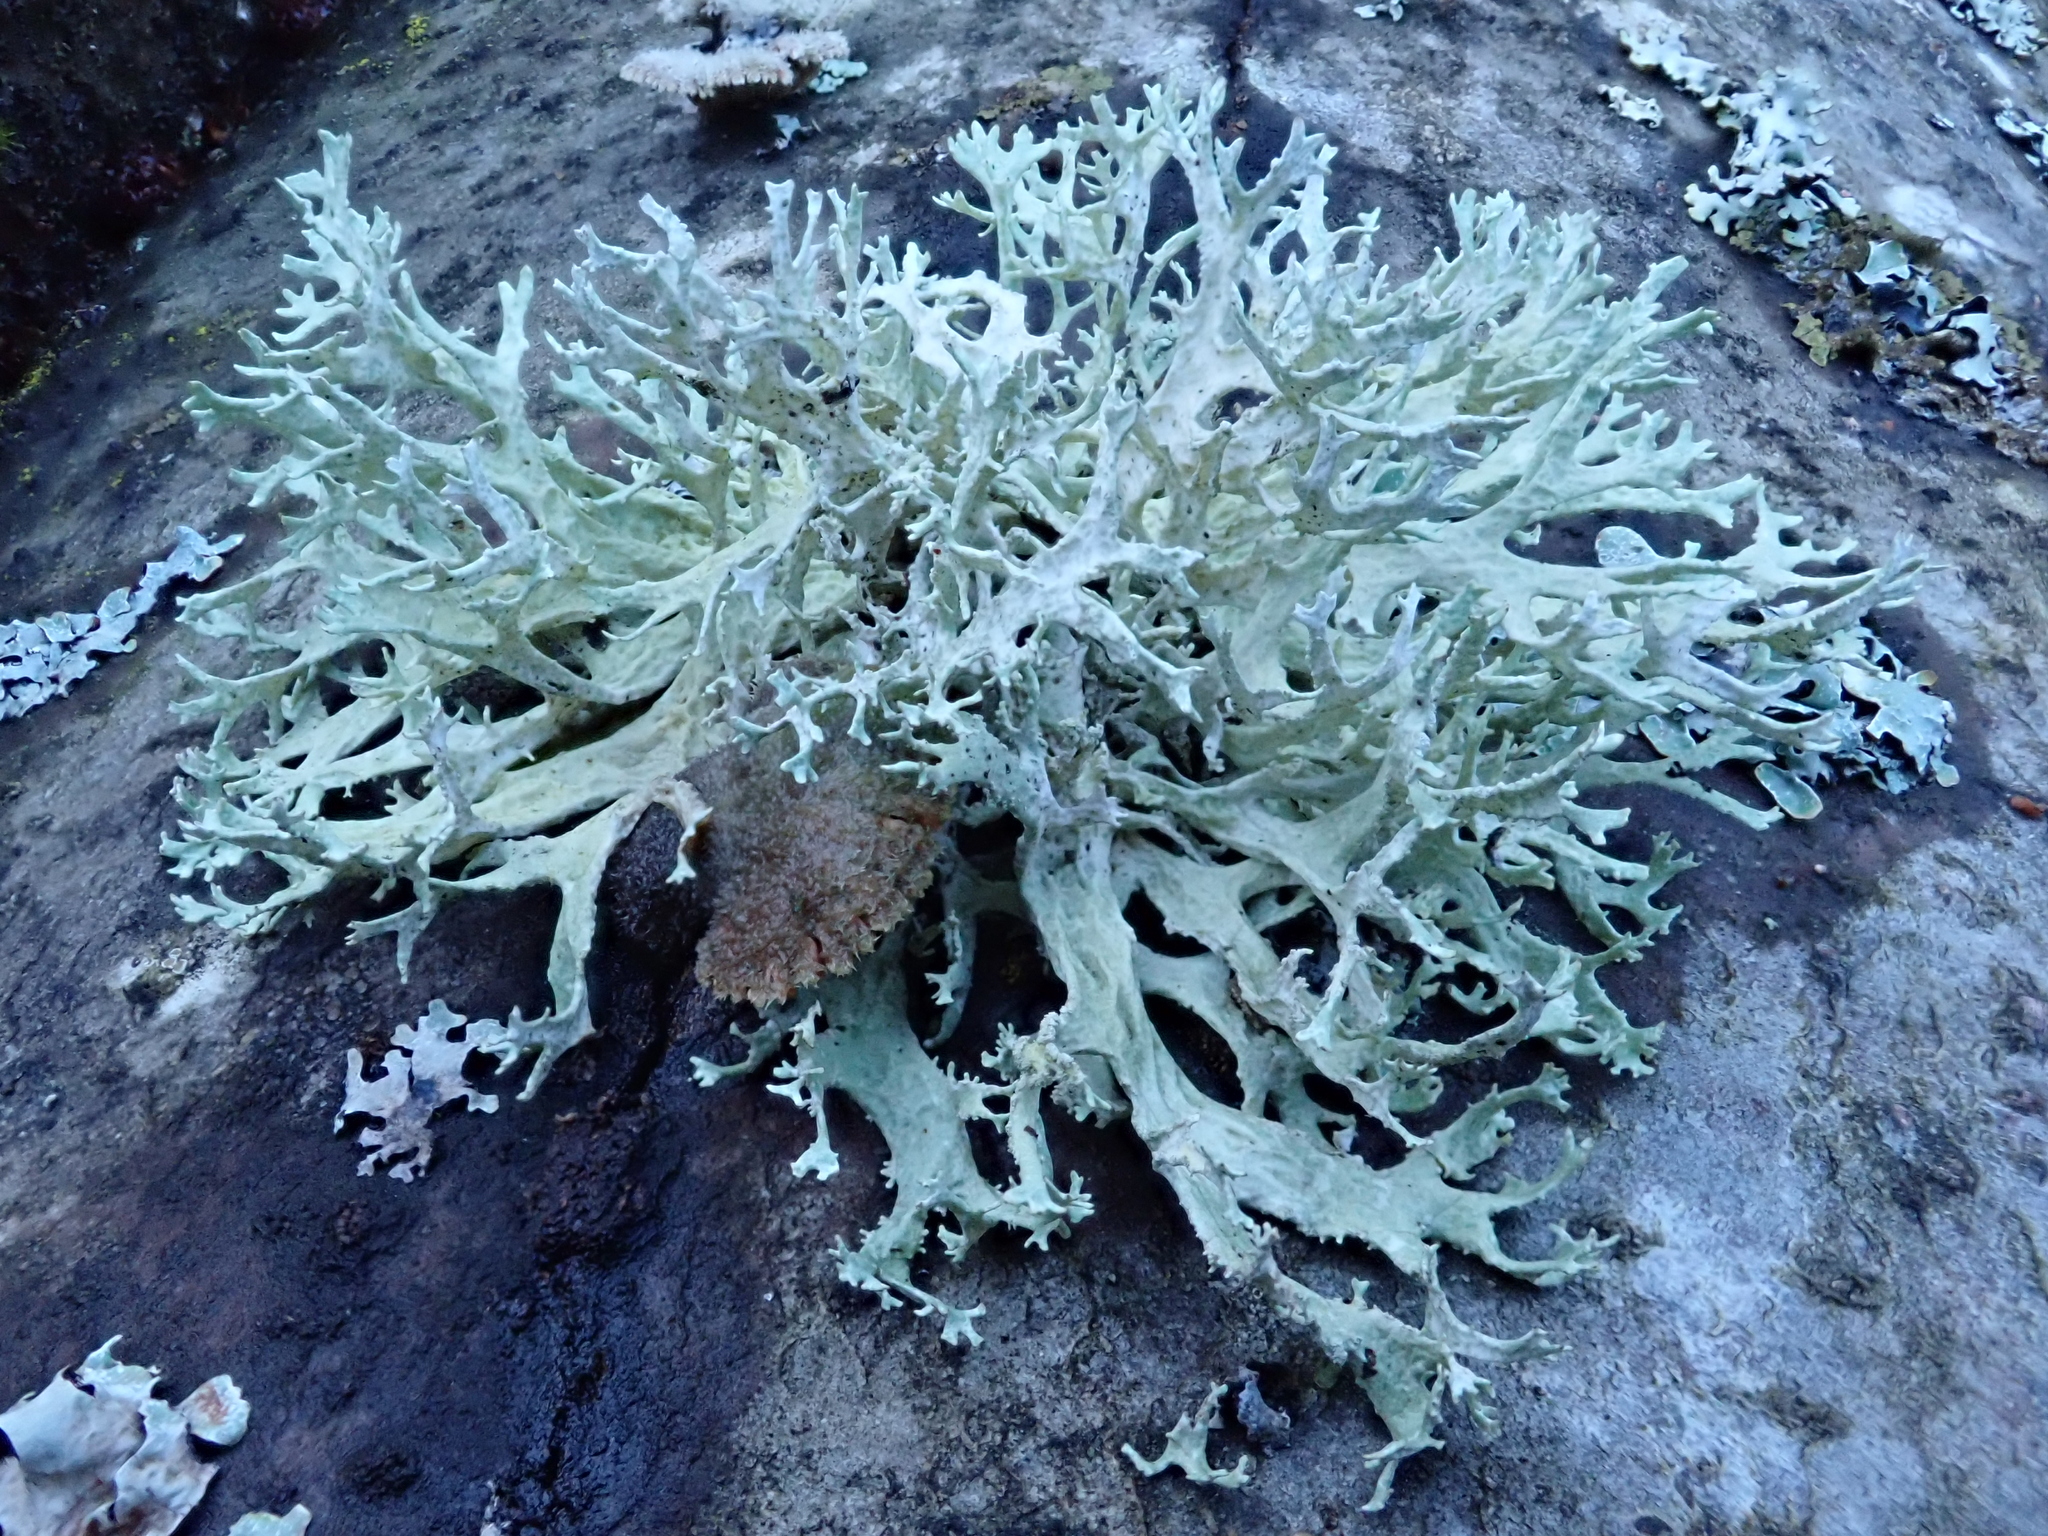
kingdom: Fungi
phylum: Ascomycota
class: Lecanoromycetes
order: Lecanorales
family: Parmeliaceae
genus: Evernia
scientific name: Evernia prunastri
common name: Oak moss
